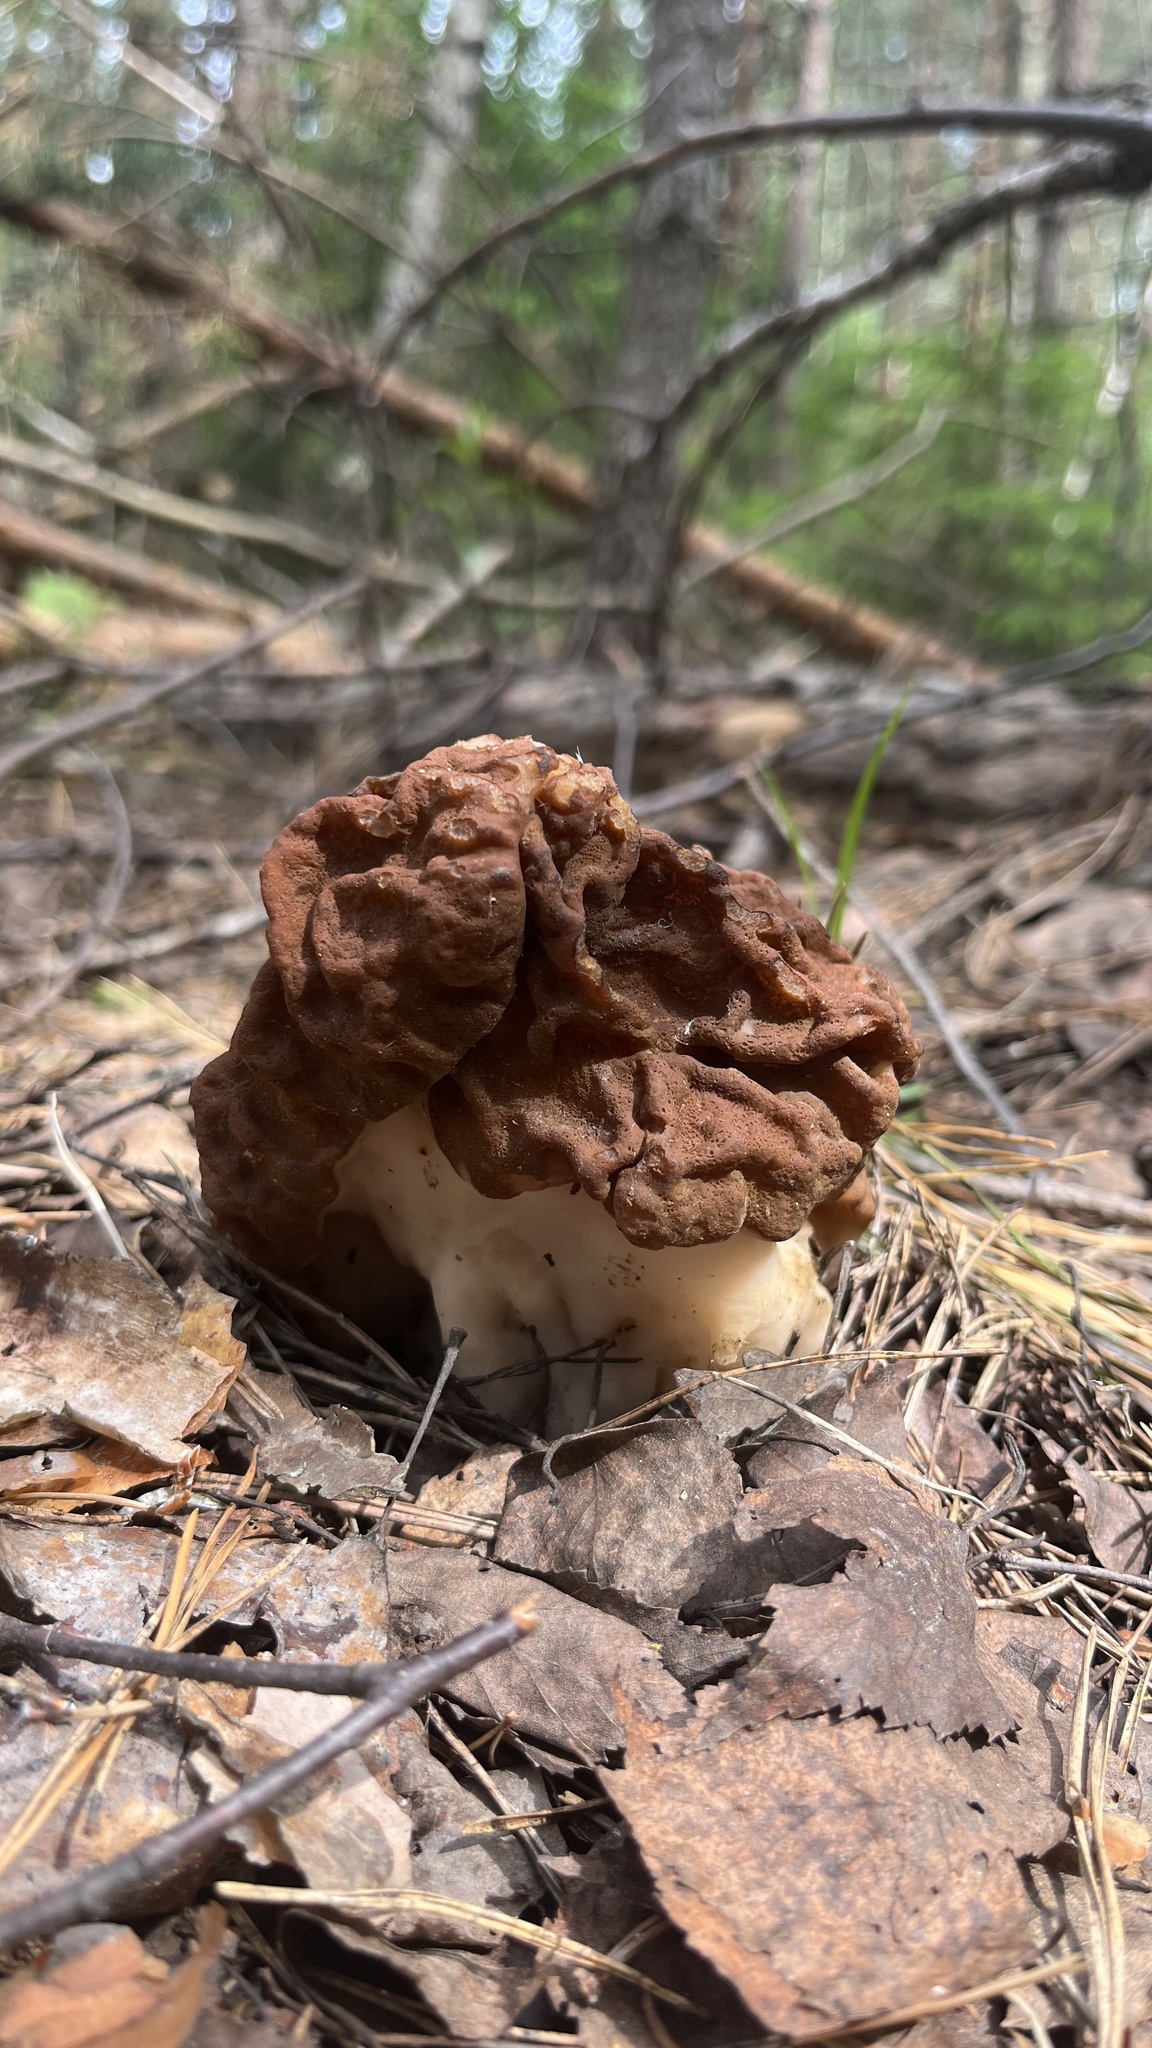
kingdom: Fungi
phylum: Ascomycota
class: Pezizomycetes
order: Pezizales
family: Discinaceae
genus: Gyromitra
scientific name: Gyromitra gigas
